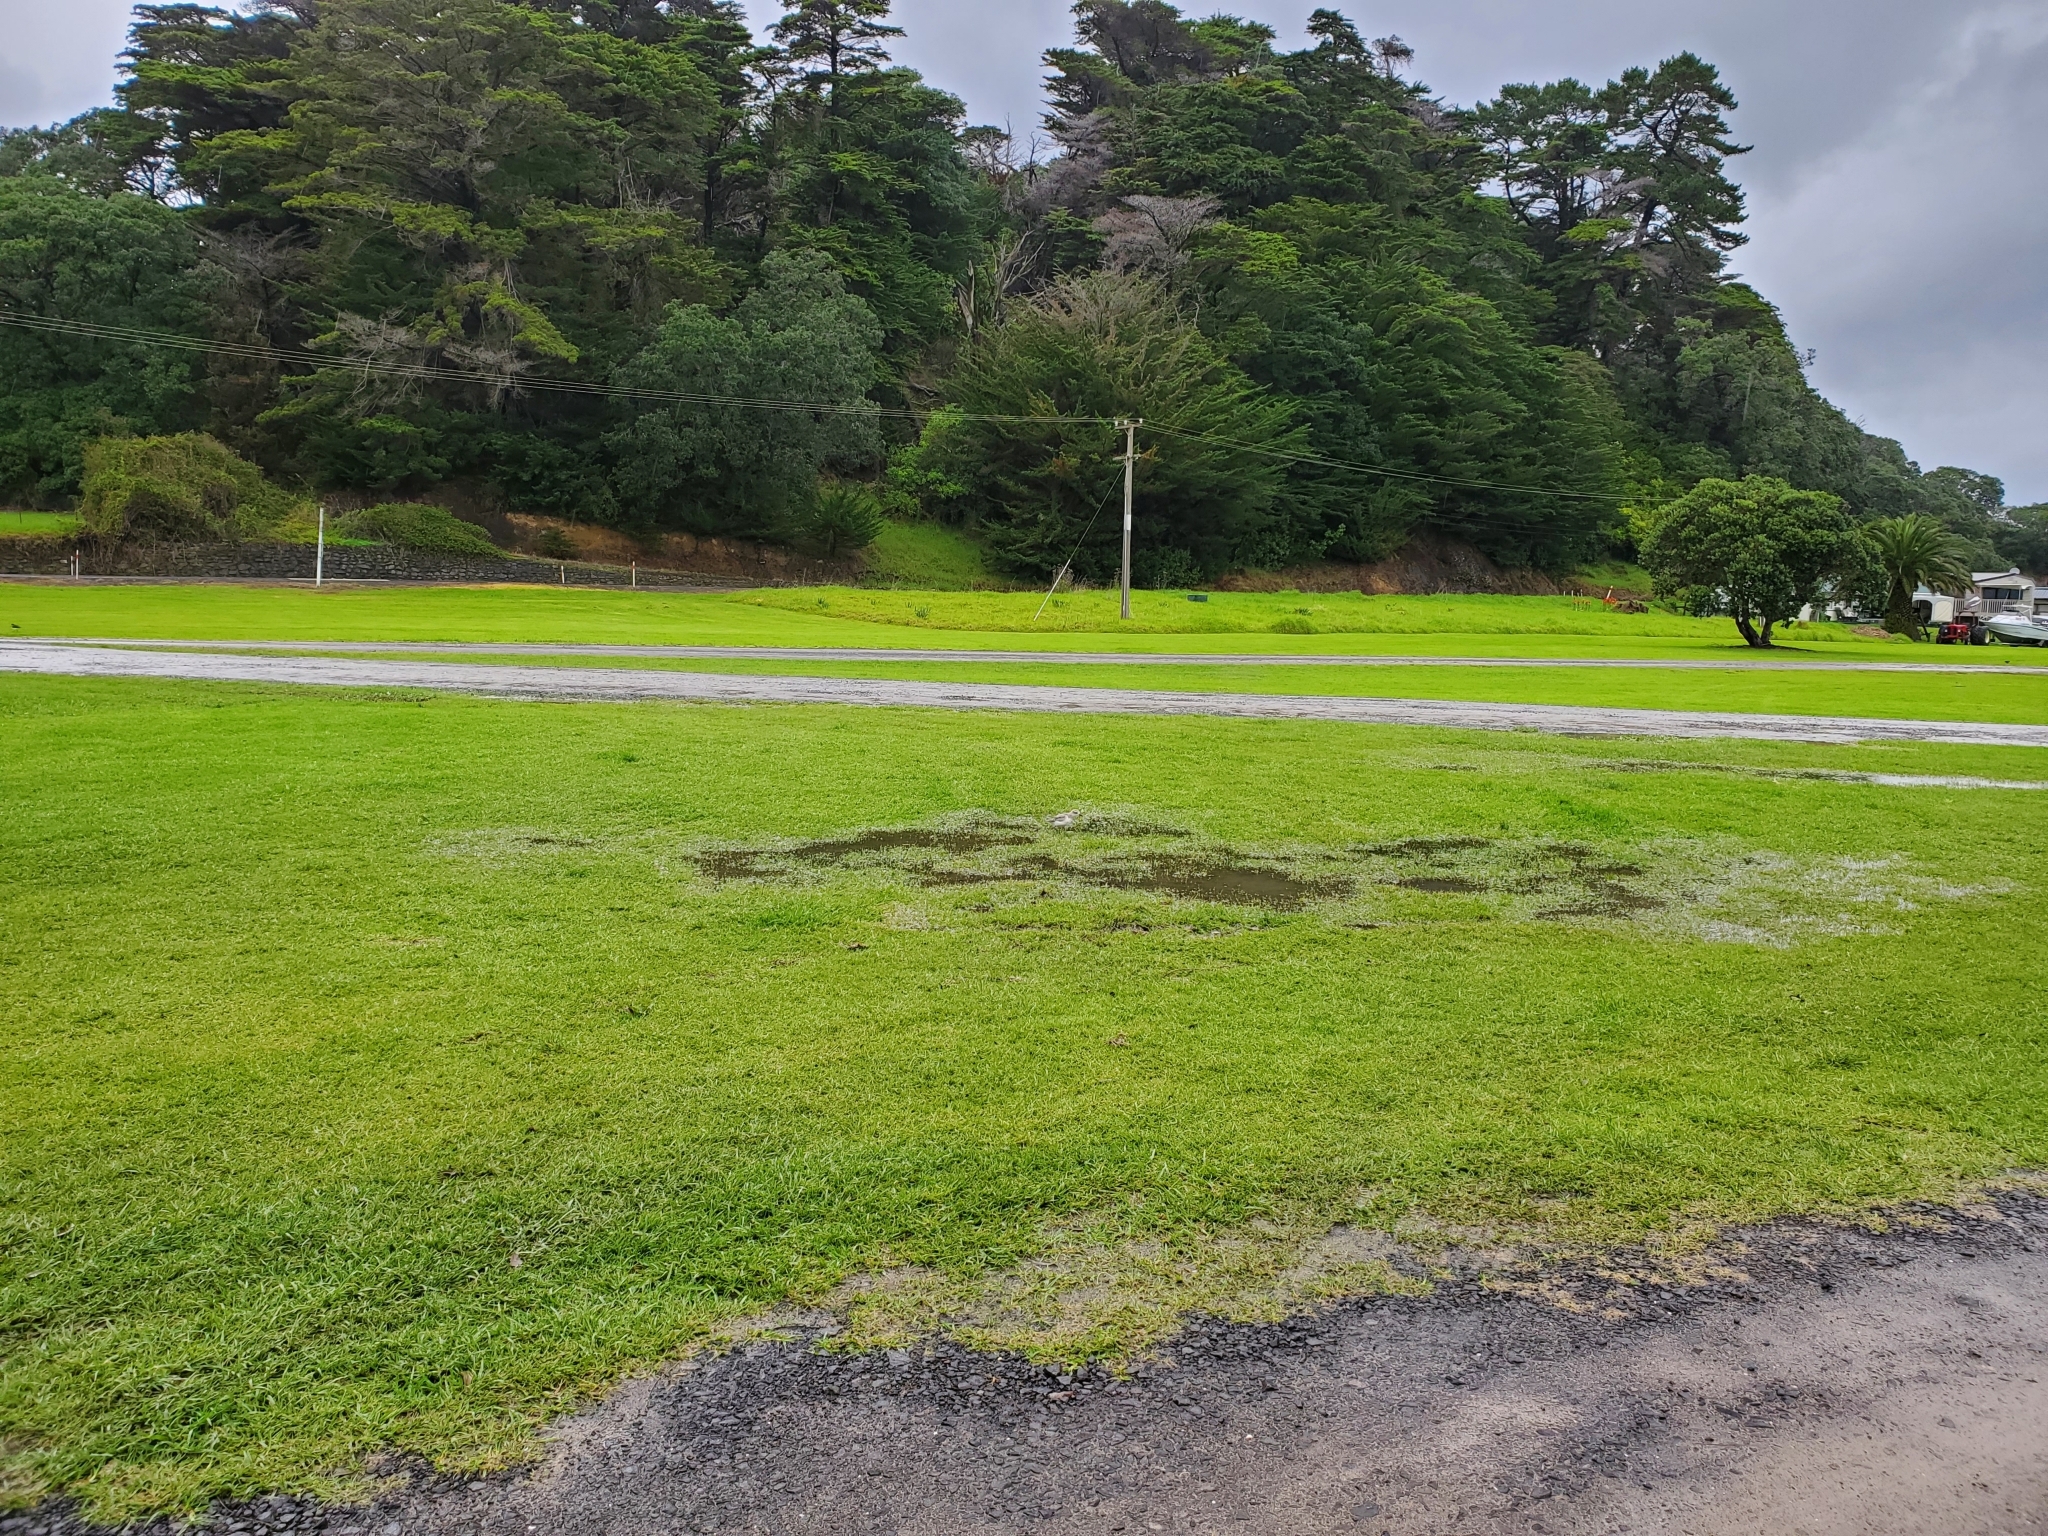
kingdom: Animalia
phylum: Chordata
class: Aves
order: Charadriiformes
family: Charadriidae
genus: Anarhynchus
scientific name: Anarhynchus
